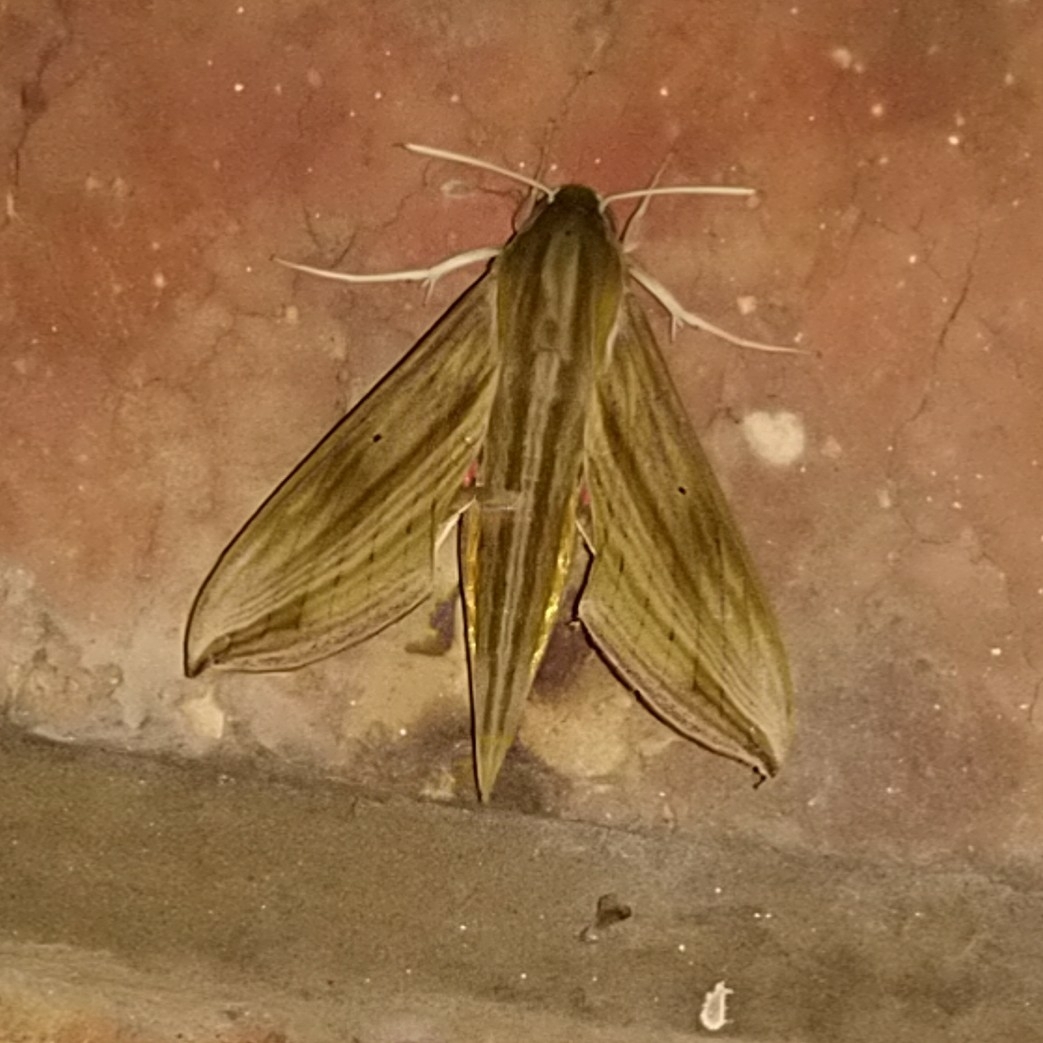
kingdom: Animalia
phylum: Arthropoda
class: Insecta
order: Lepidoptera
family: Sphingidae
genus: Hippotion
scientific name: Hippotion eson
